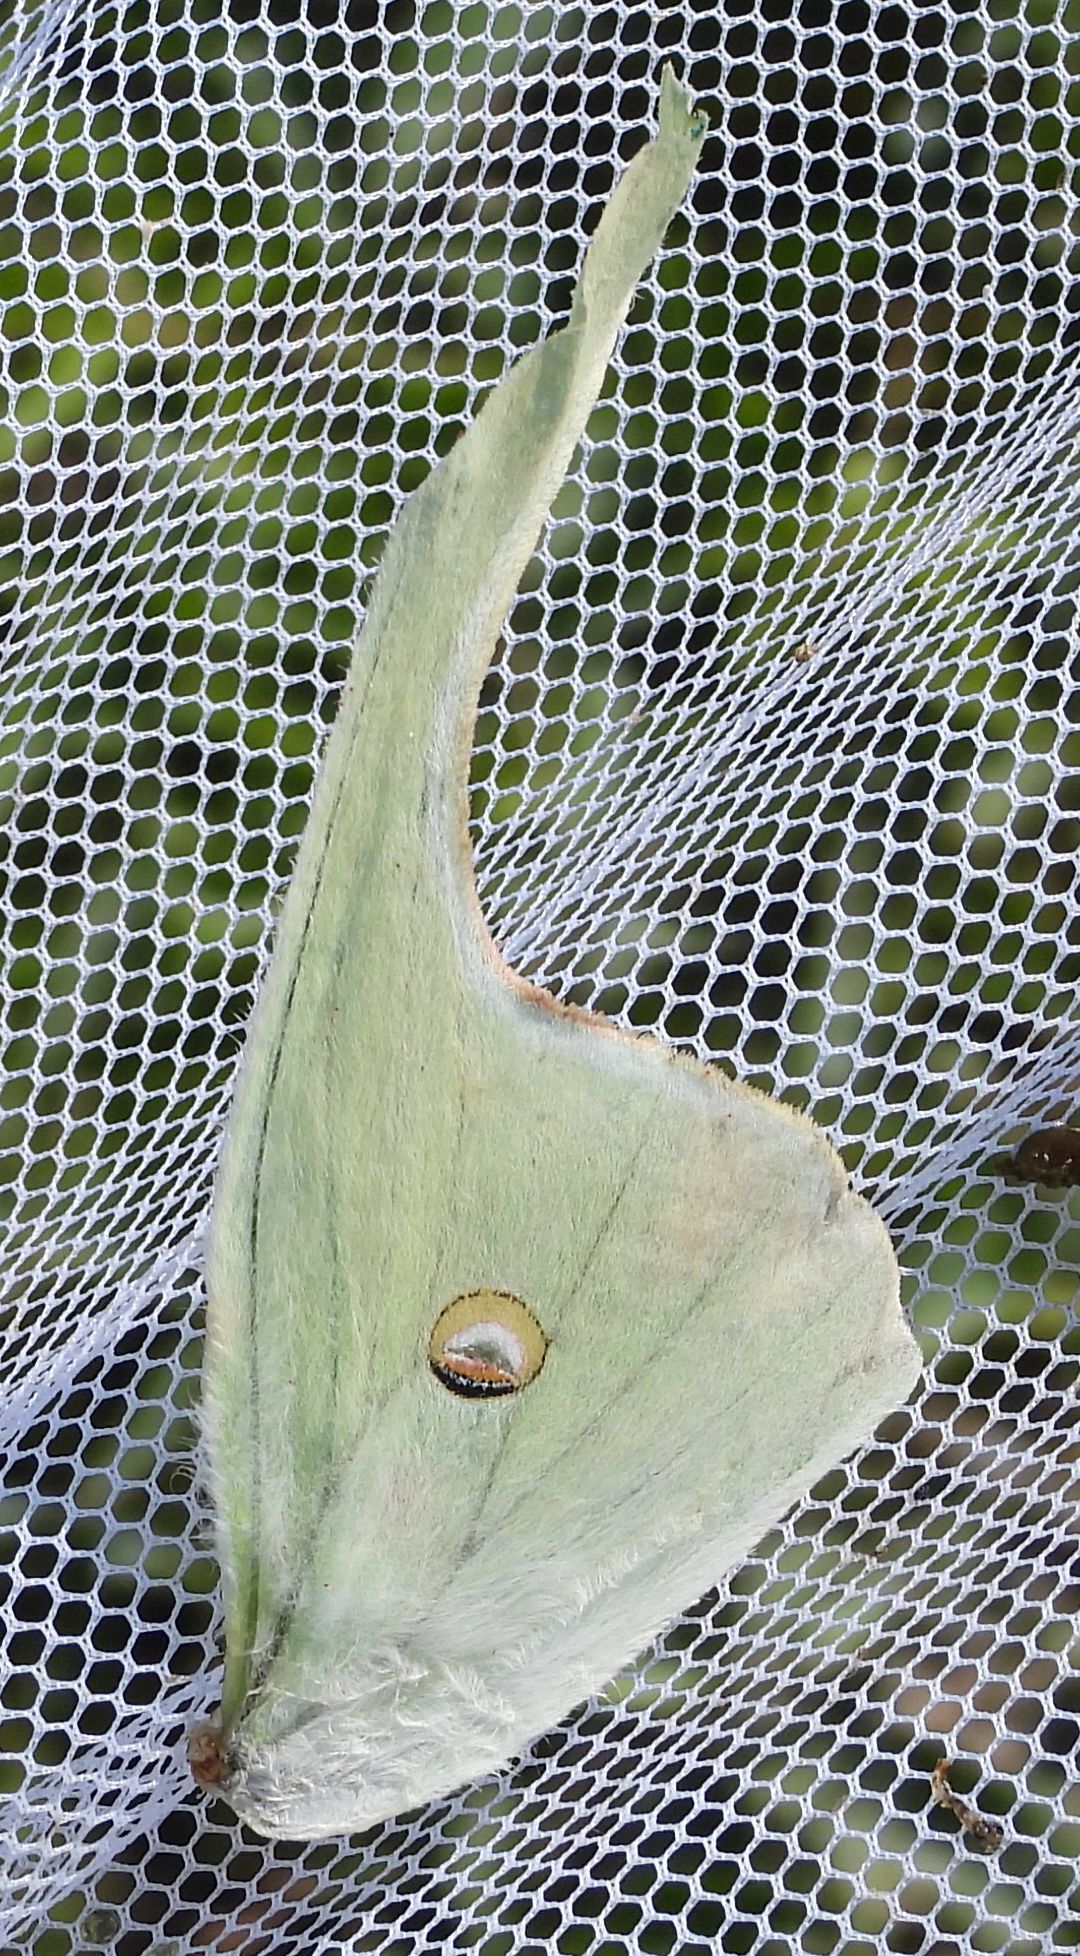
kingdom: Animalia
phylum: Arthropoda
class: Insecta
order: Lepidoptera
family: Saturniidae
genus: Actias
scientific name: Actias luna
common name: Luna moth
